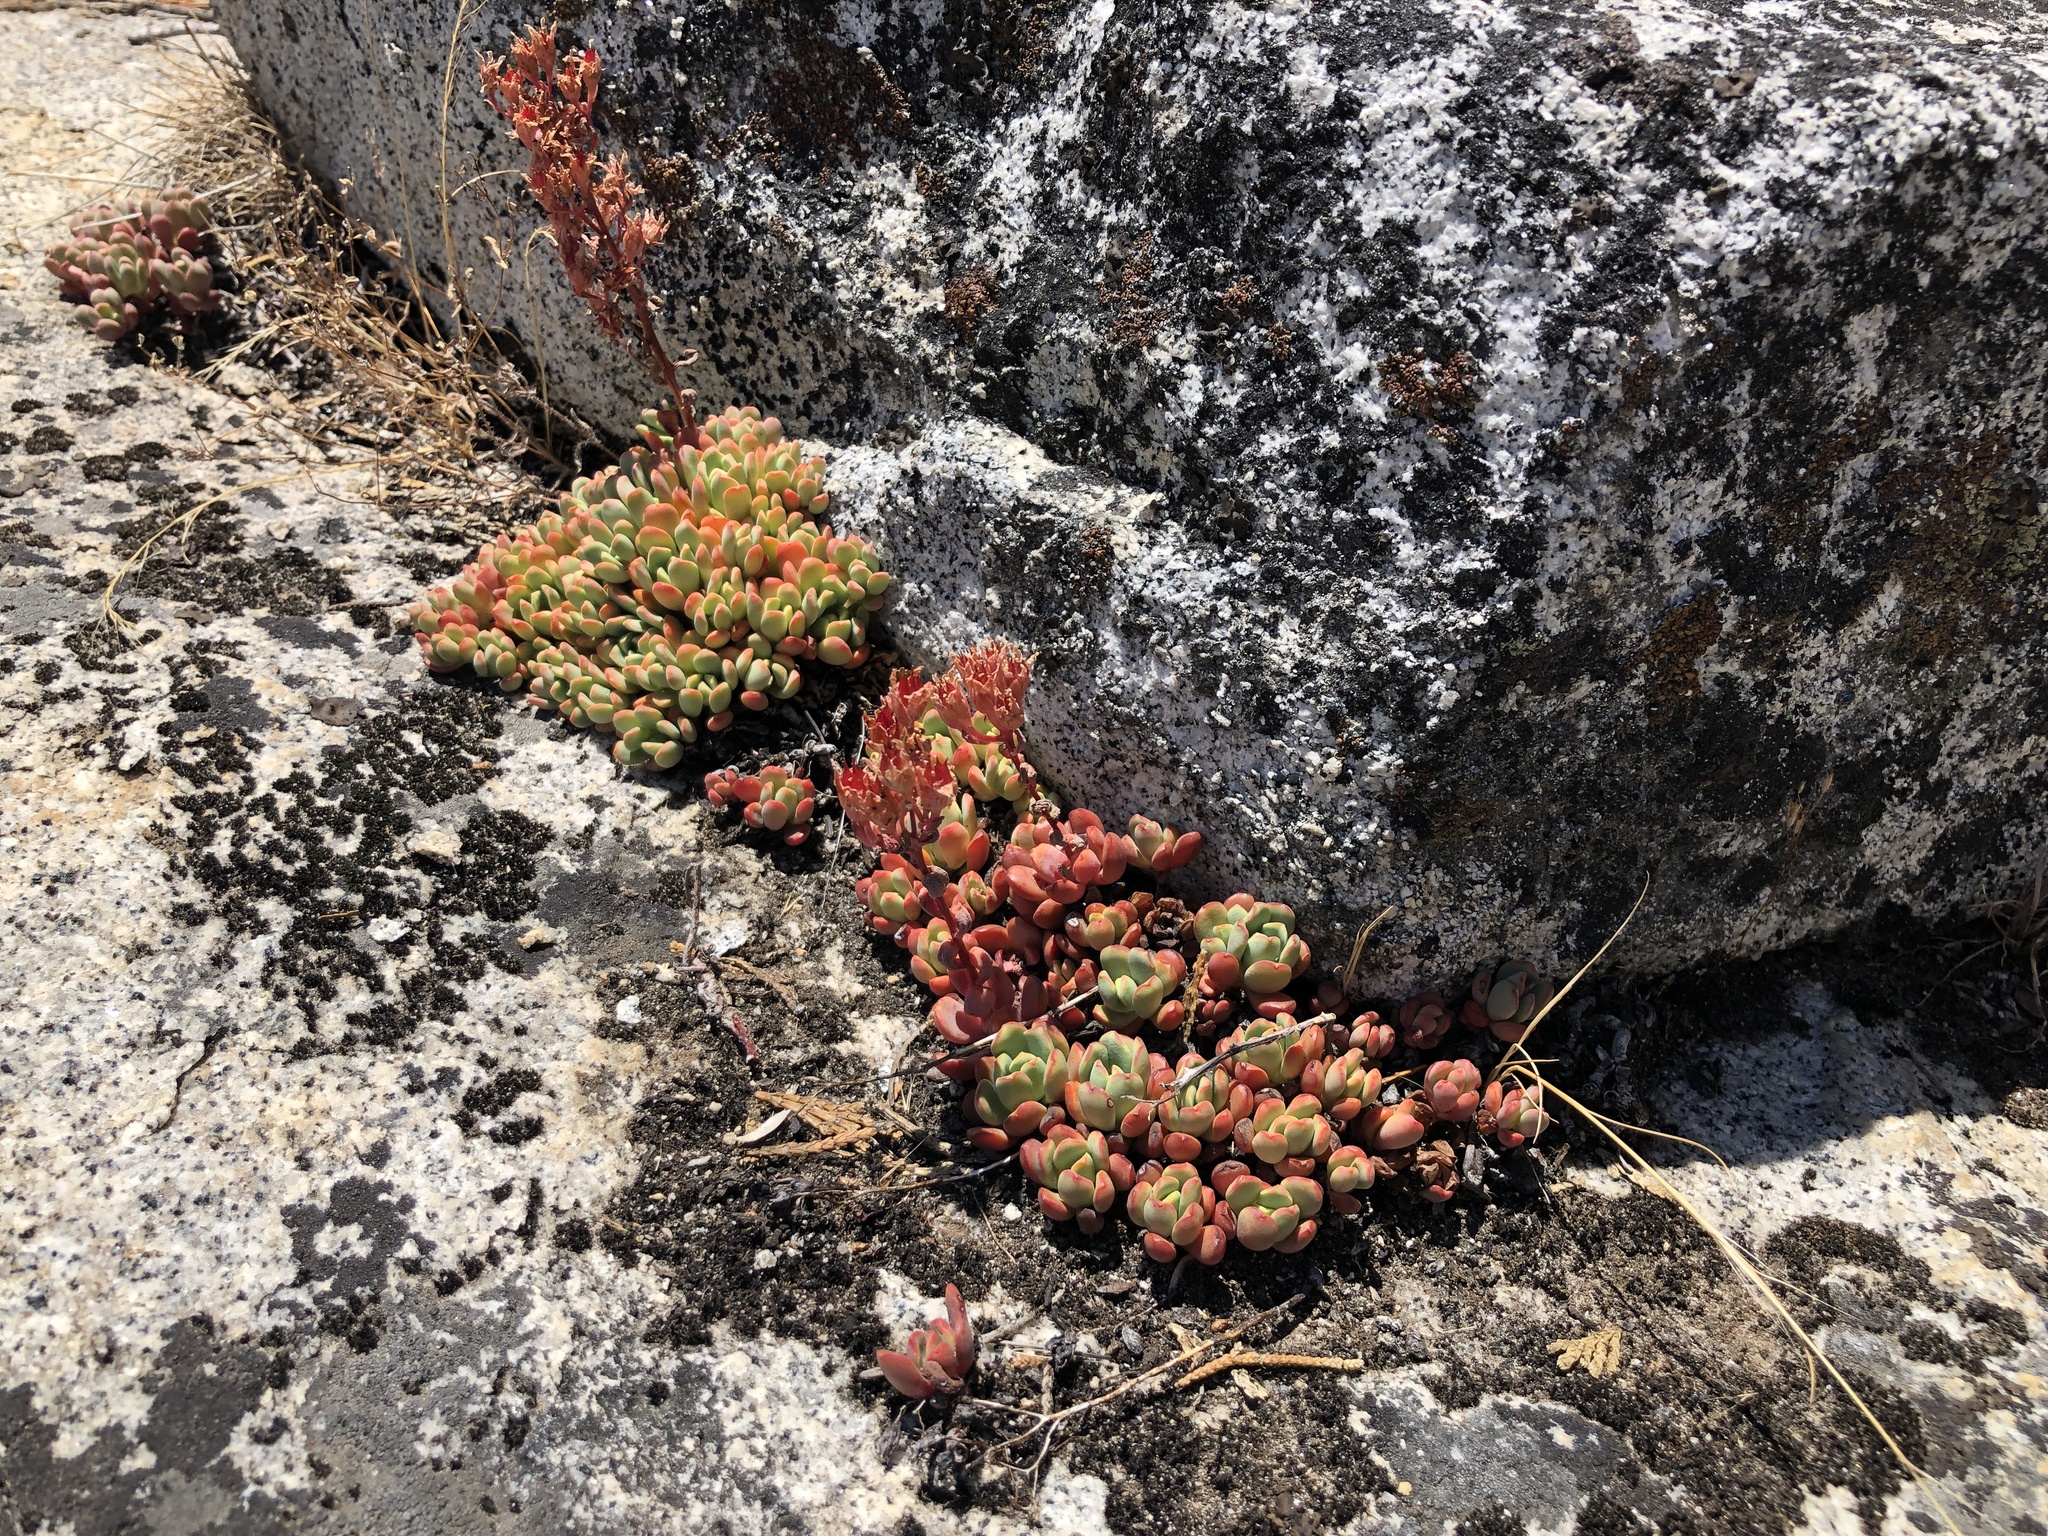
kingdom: Plantae
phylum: Tracheophyta
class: Magnoliopsida
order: Saxifragales
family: Crassulaceae
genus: Sedum
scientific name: Sedum obtusatum
